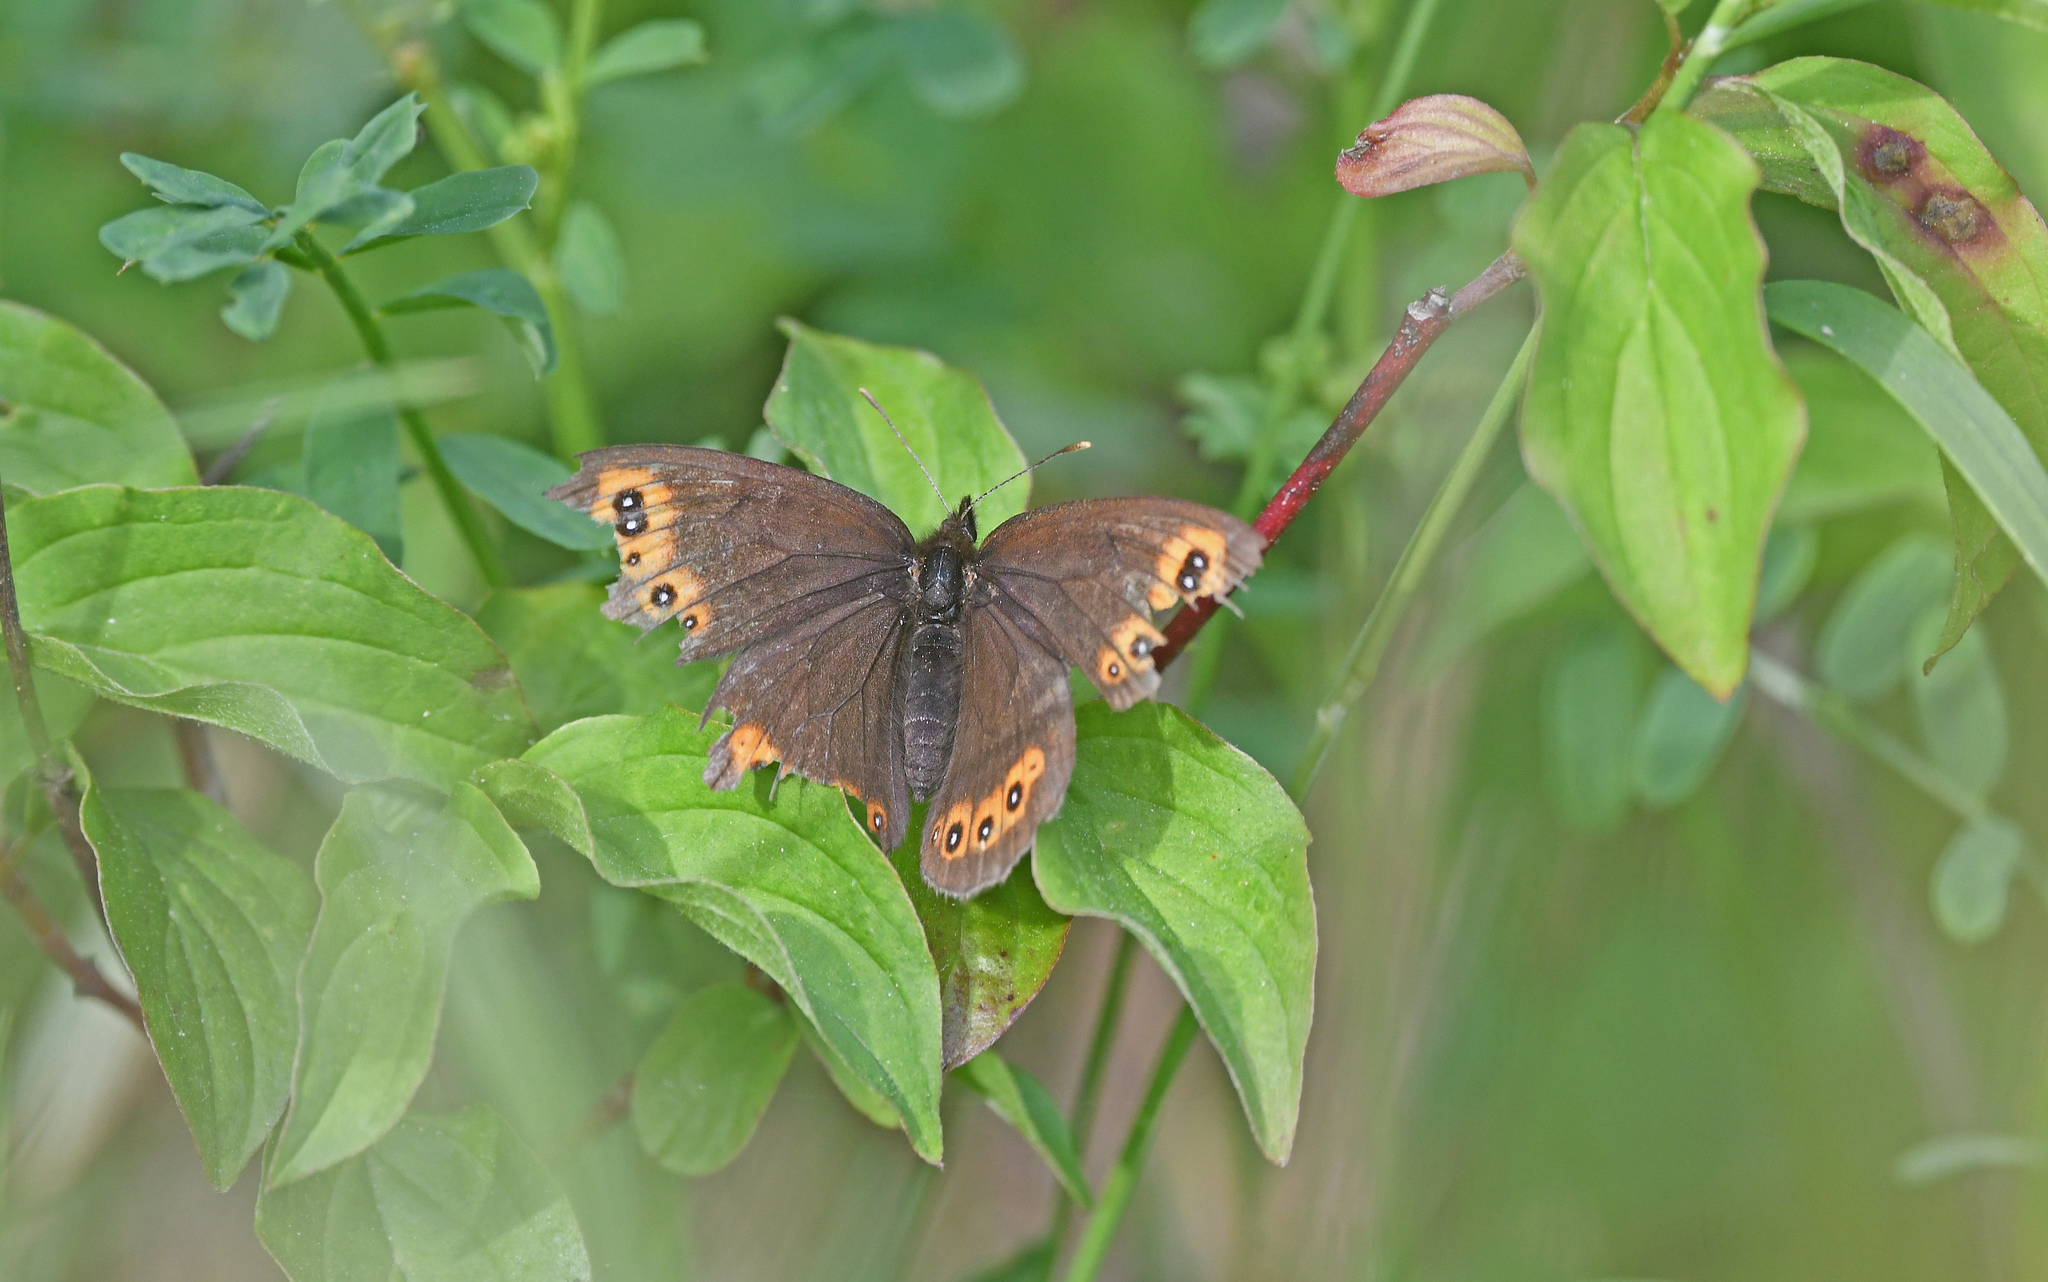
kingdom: Animalia
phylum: Arthropoda
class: Insecta
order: Lepidoptera
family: Nymphalidae
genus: Erebia
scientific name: Erebia medusa
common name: Woodland ringlet
